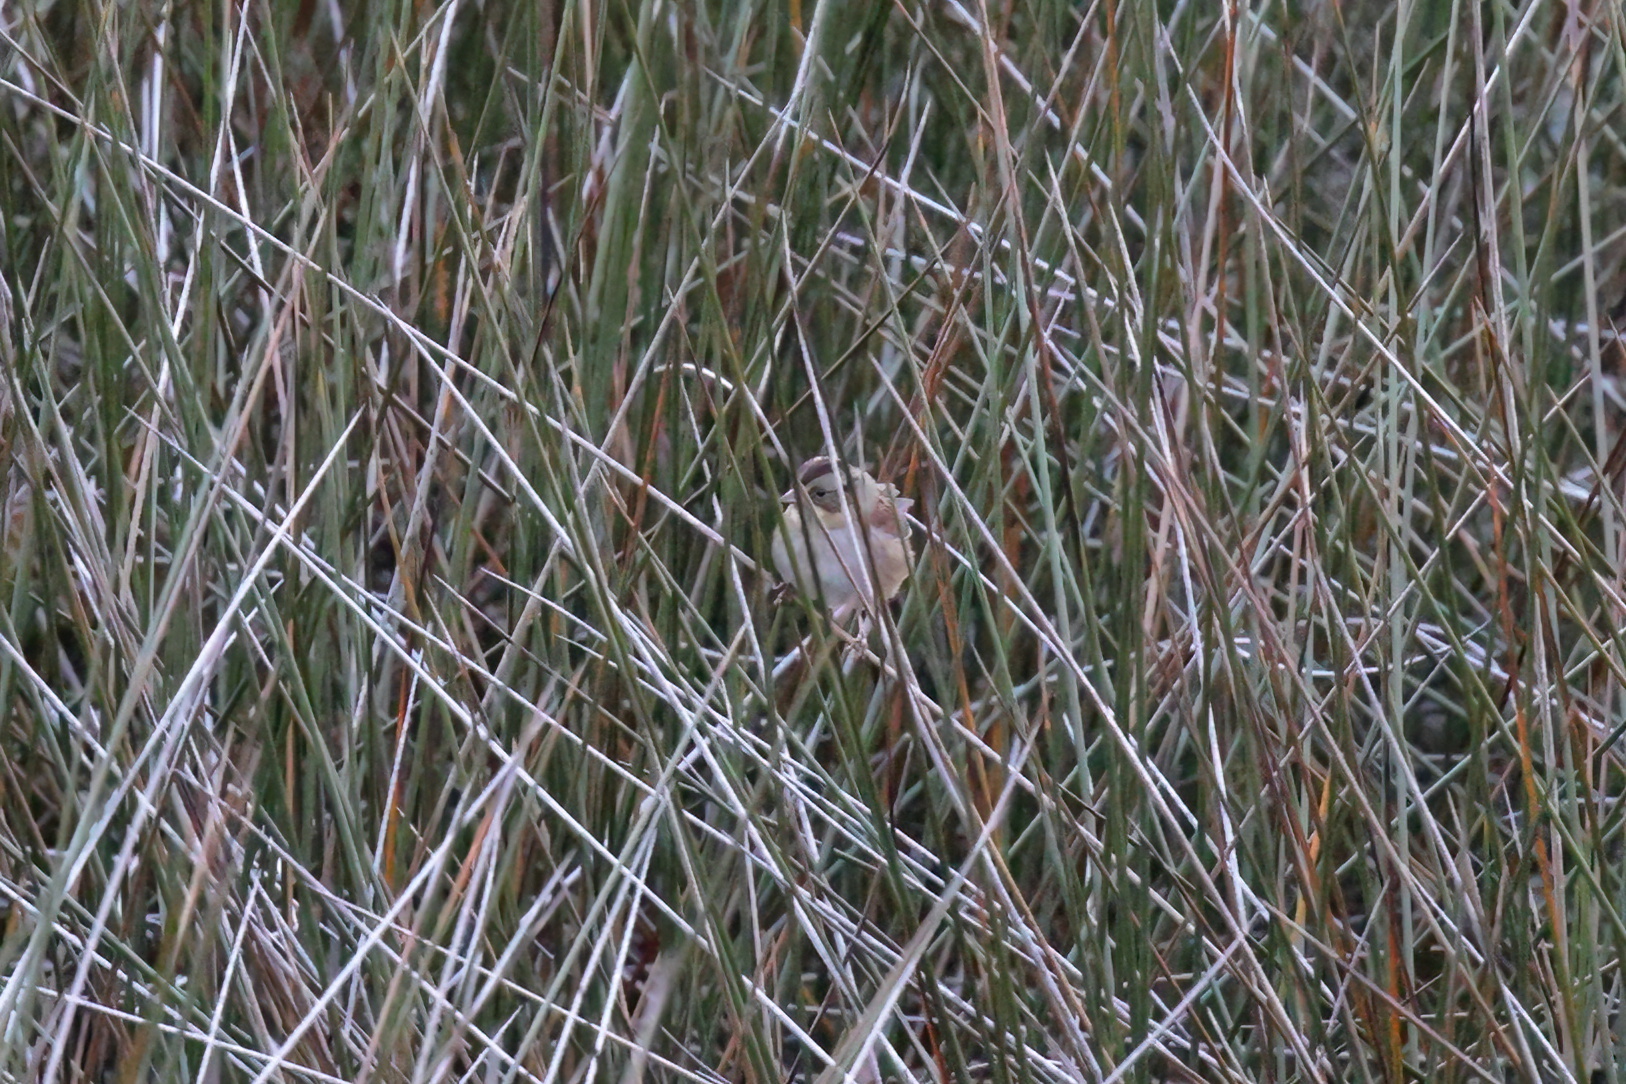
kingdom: Animalia
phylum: Chordata
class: Aves
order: Passeriformes
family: Passerellidae
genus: Melospiza
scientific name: Melospiza georgiana
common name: Swamp sparrow
